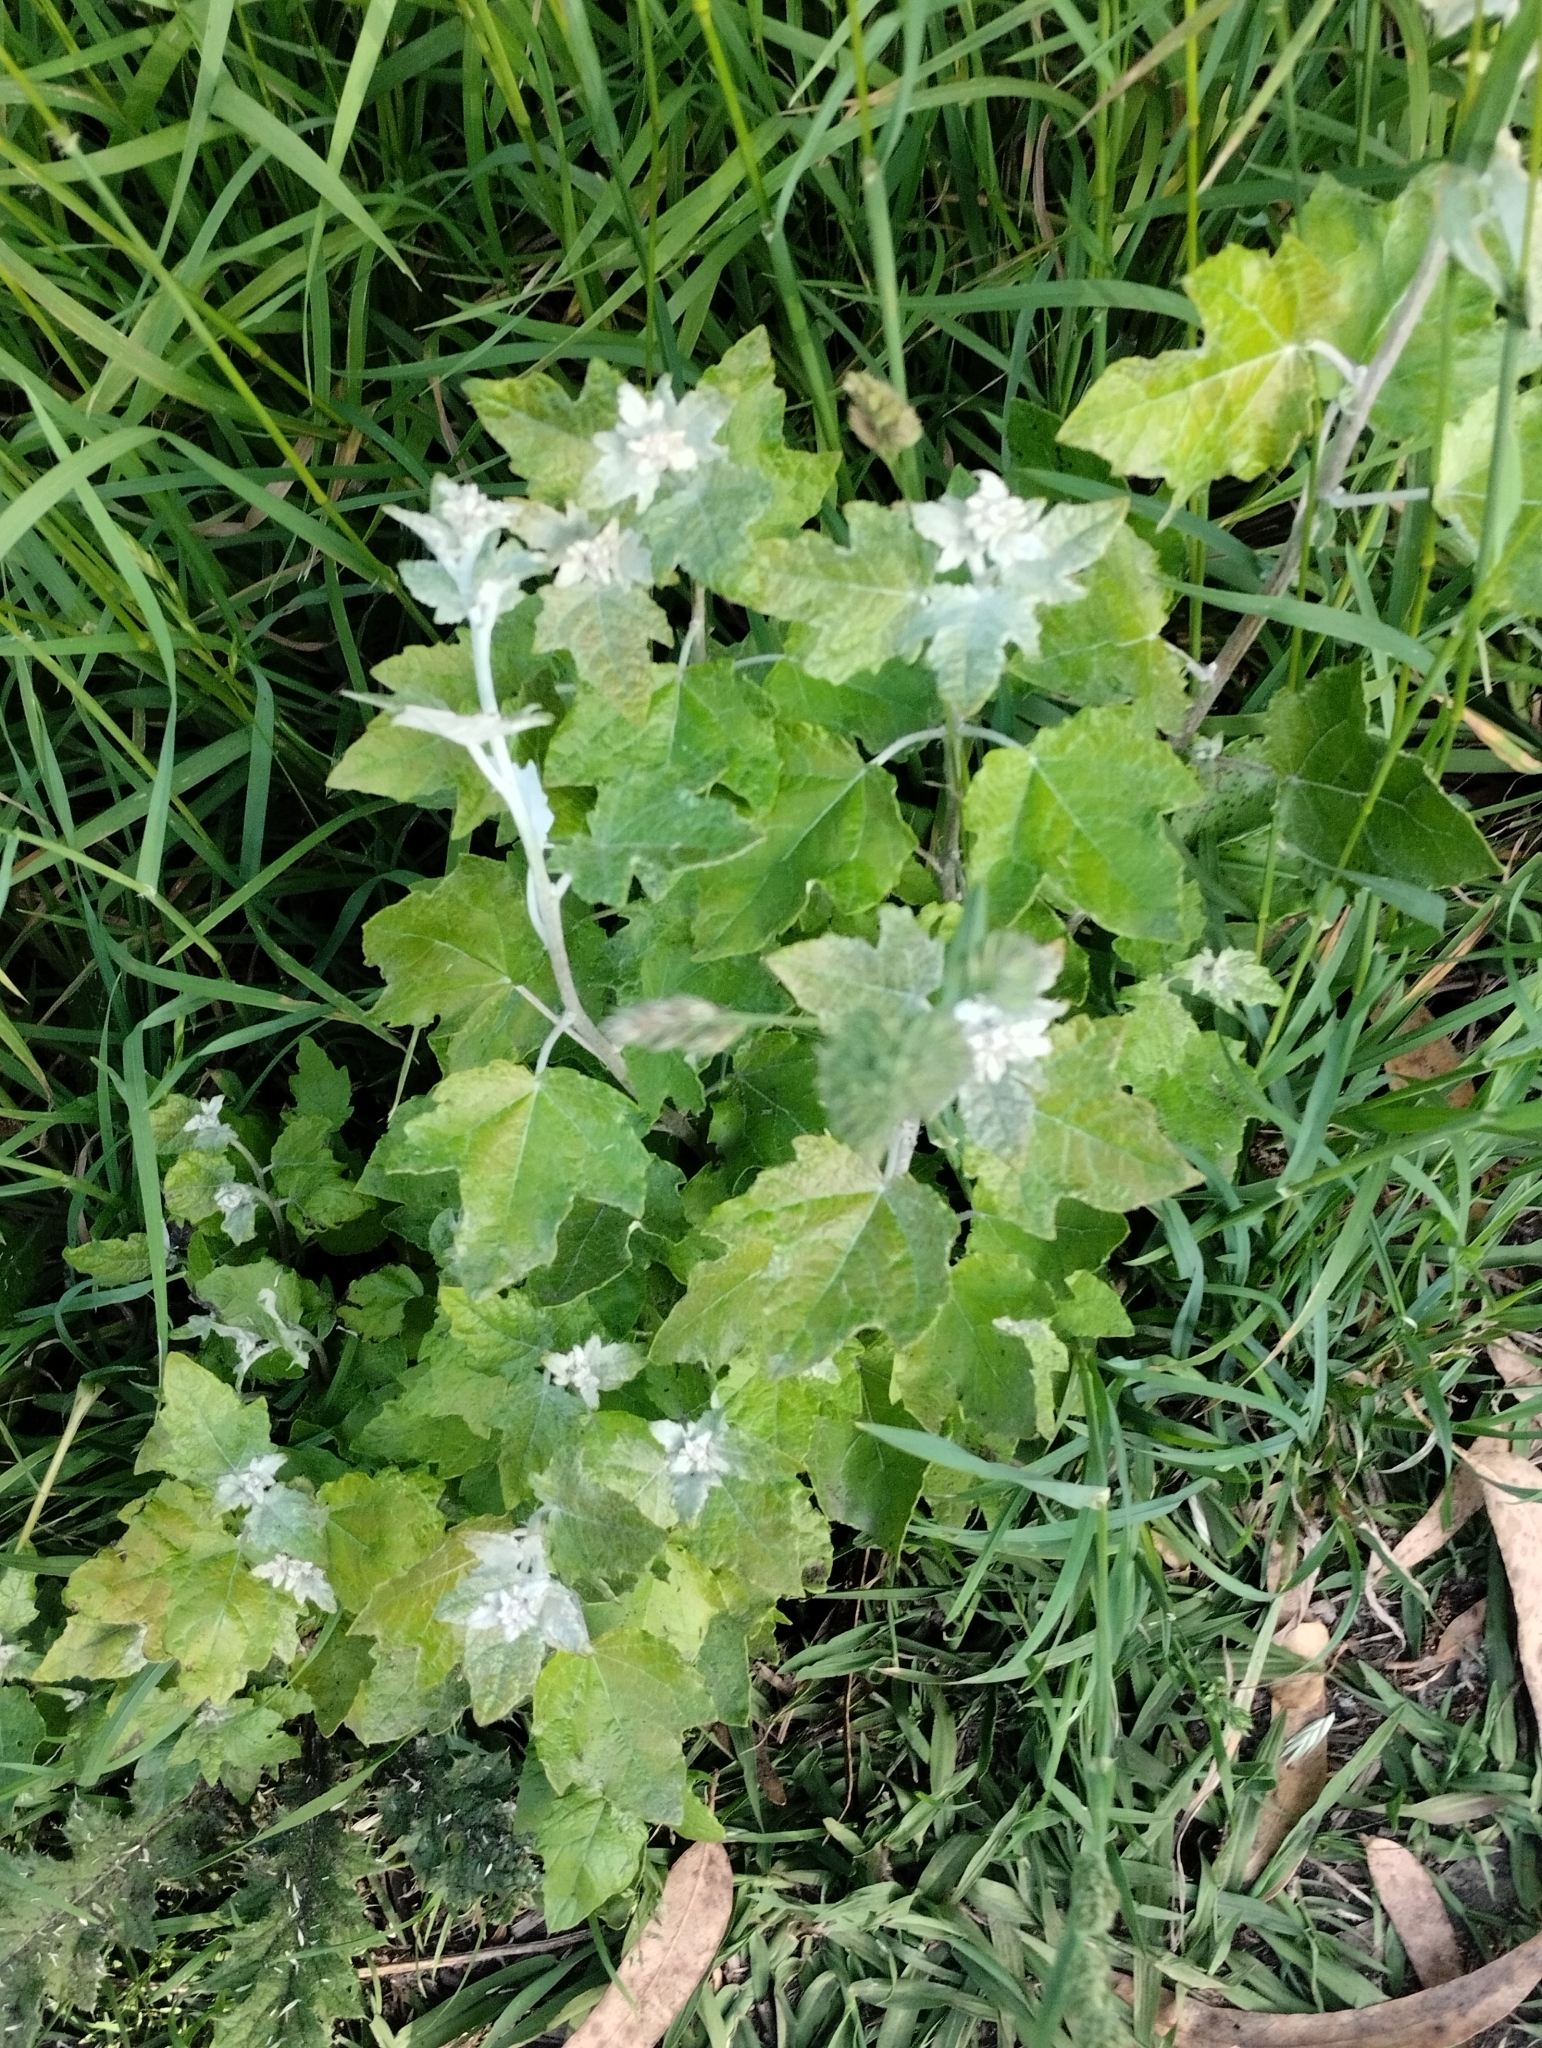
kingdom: Plantae
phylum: Tracheophyta
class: Magnoliopsida
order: Malpighiales
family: Salicaceae
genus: Populus
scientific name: Populus alba
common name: White poplar
